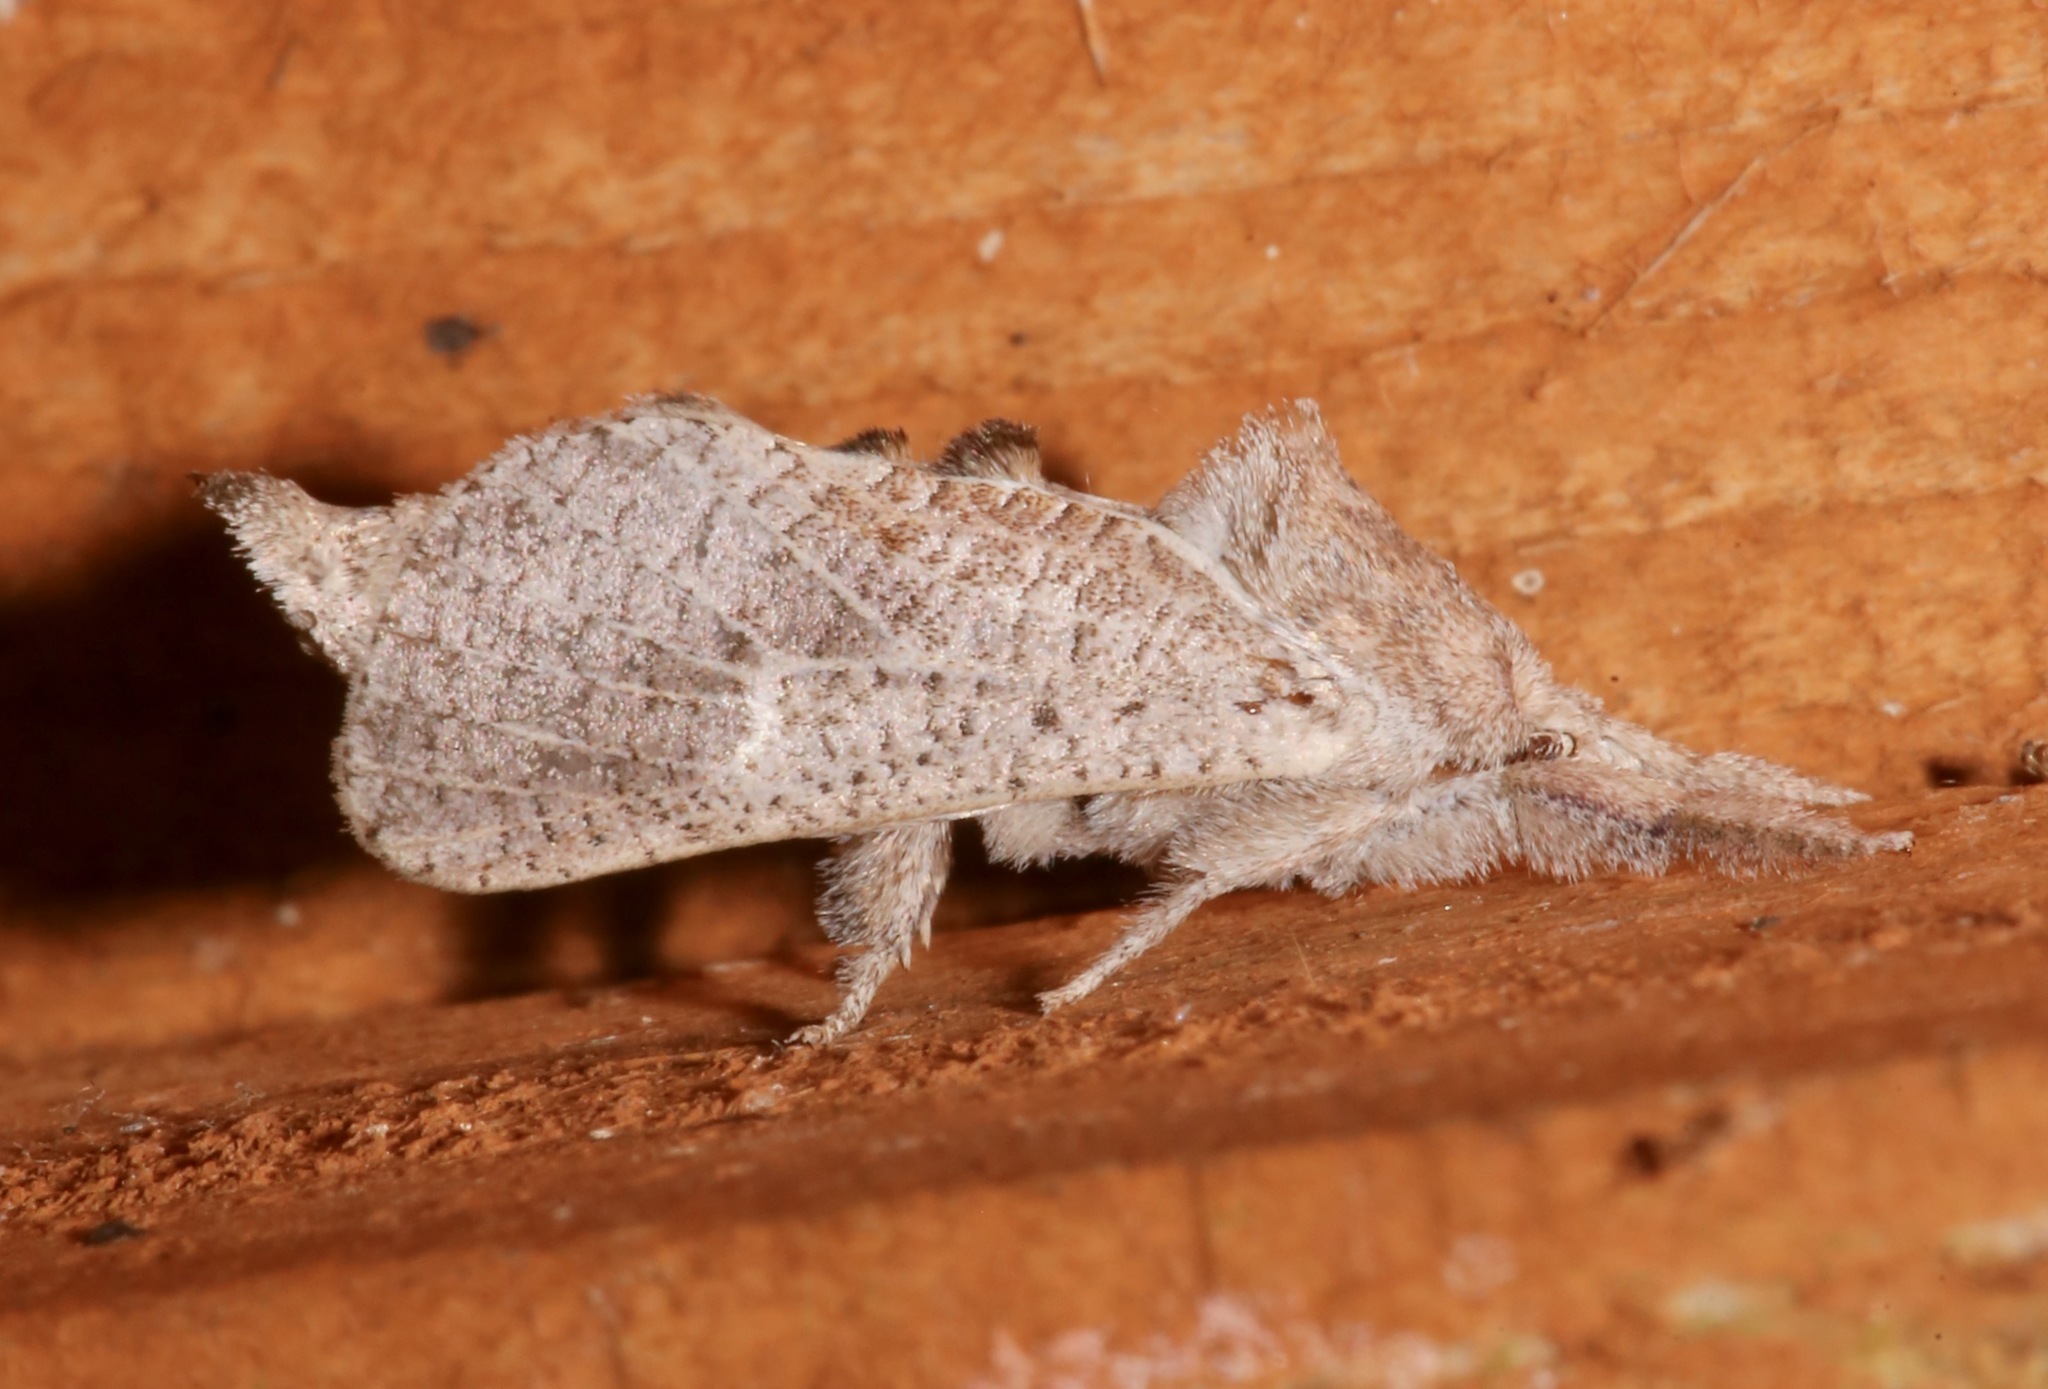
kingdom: Animalia
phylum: Arthropoda
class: Insecta
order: Lepidoptera
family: Cossidae
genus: Givira
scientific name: Givira anna
